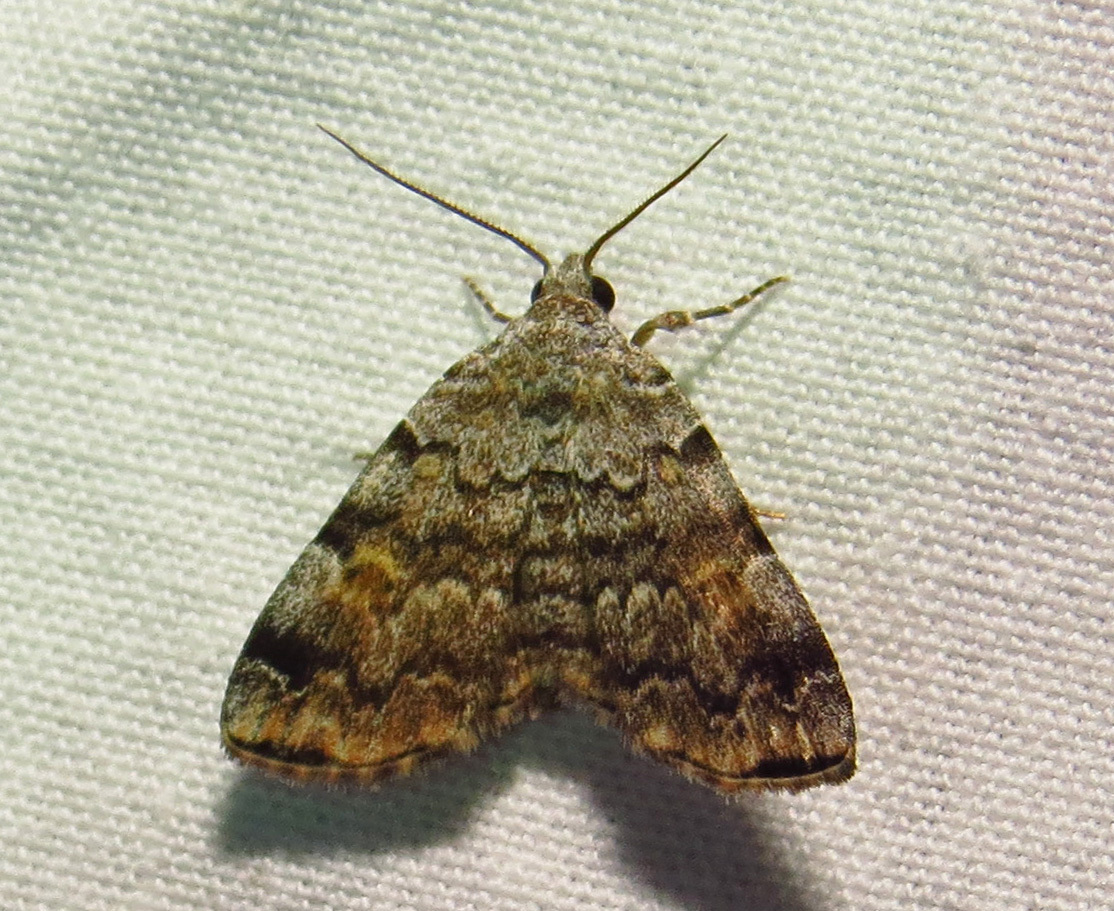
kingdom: Animalia
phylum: Arthropoda
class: Insecta
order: Lepidoptera
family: Erebidae
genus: Idia
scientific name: Idia americalis
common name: American idia moth
